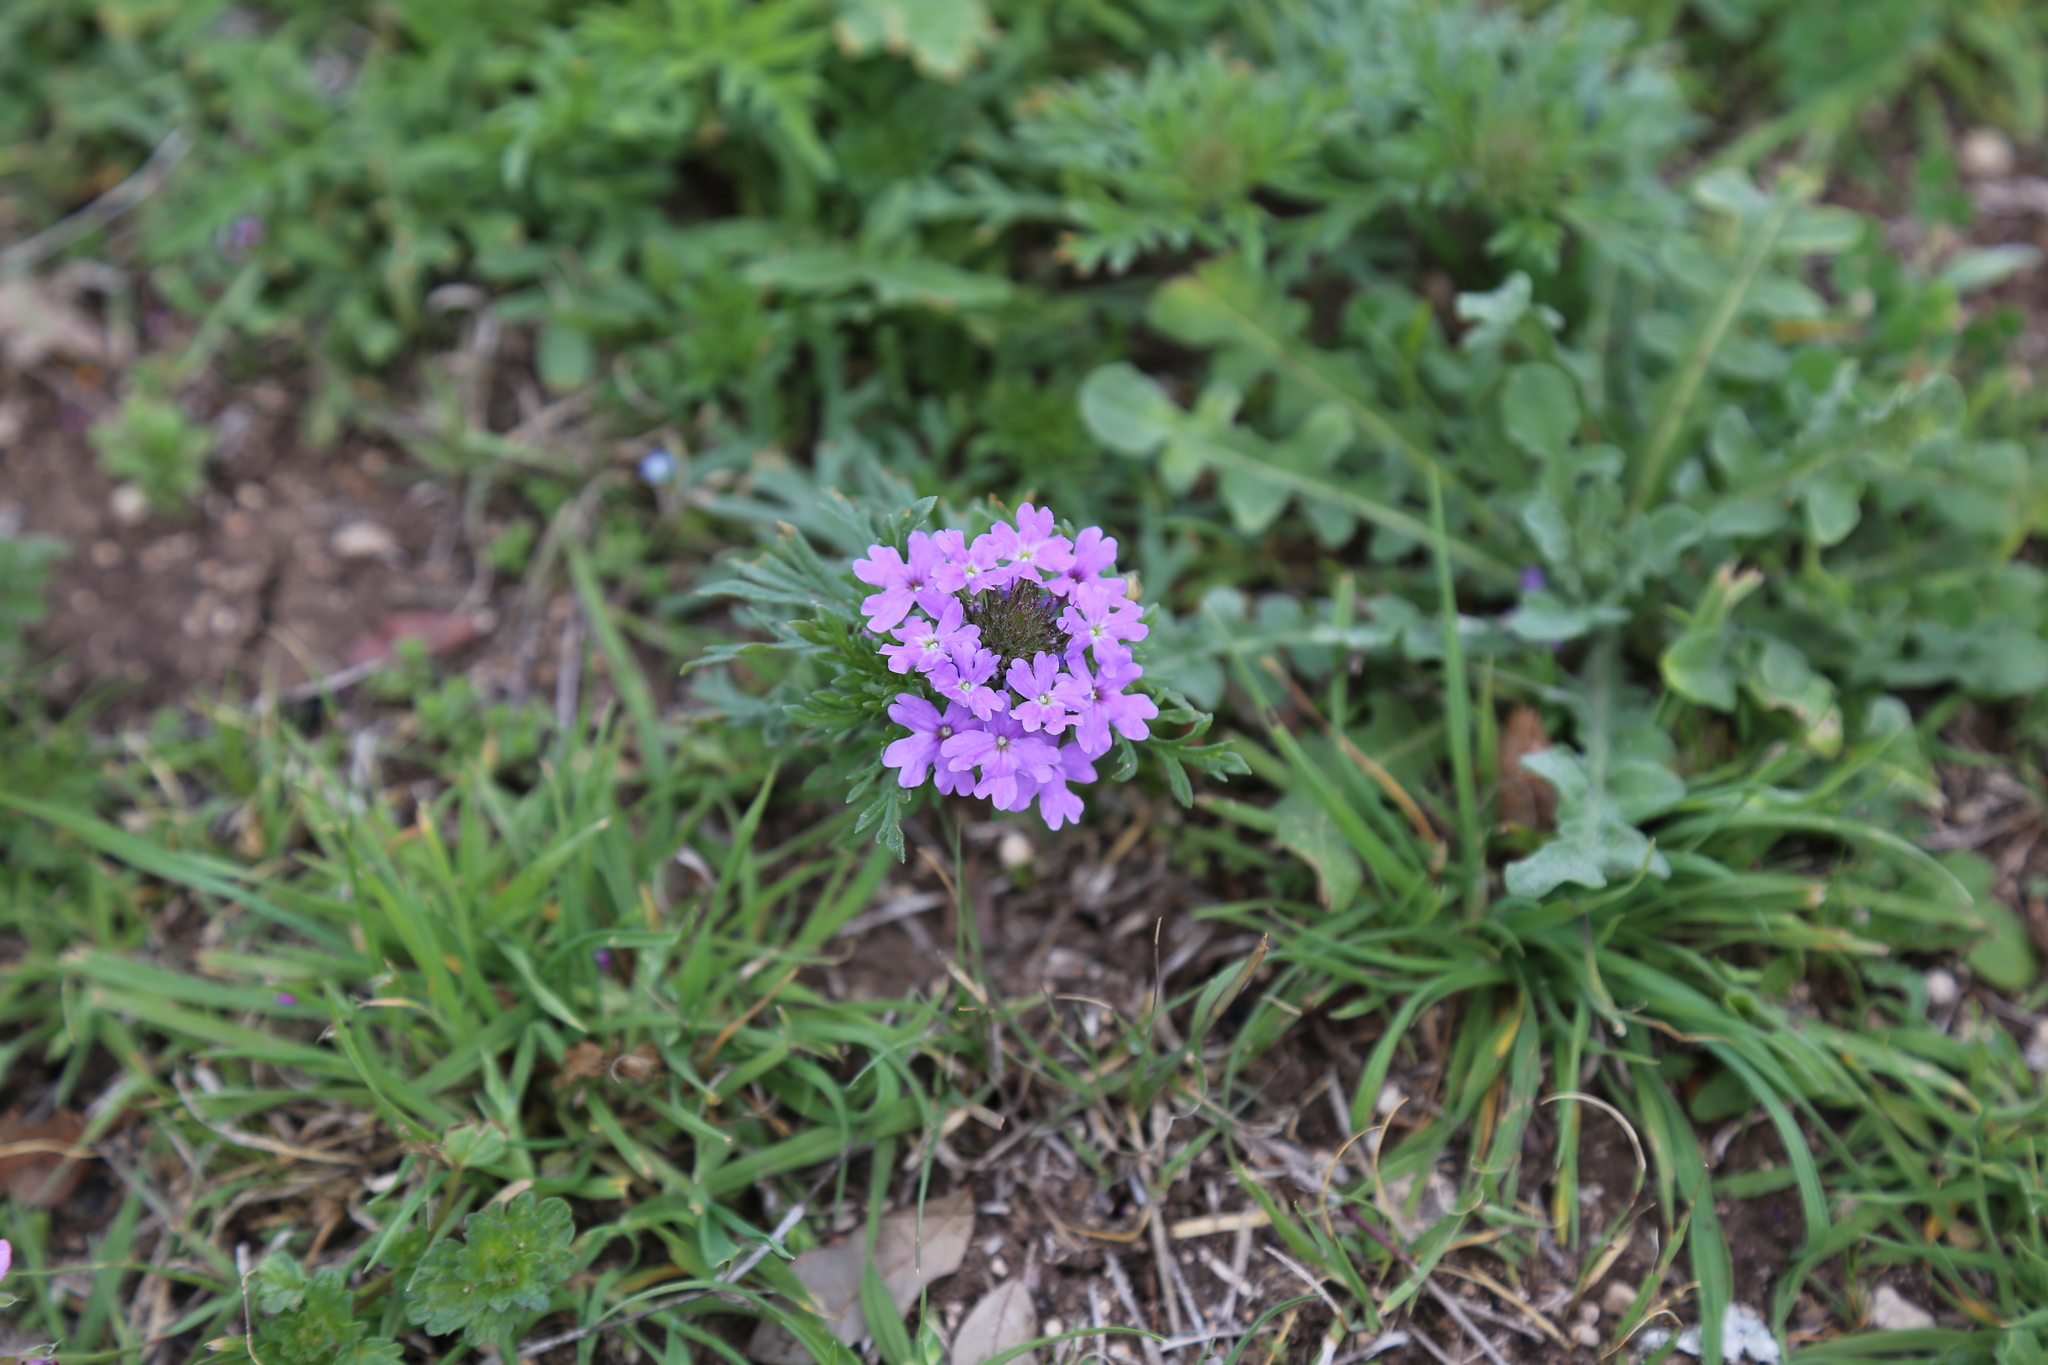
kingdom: Plantae
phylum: Tracheophyta
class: Magnoliopsida
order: Lamiales
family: Verbenaceae
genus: Verbena
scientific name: Verbena bipinnatifida
